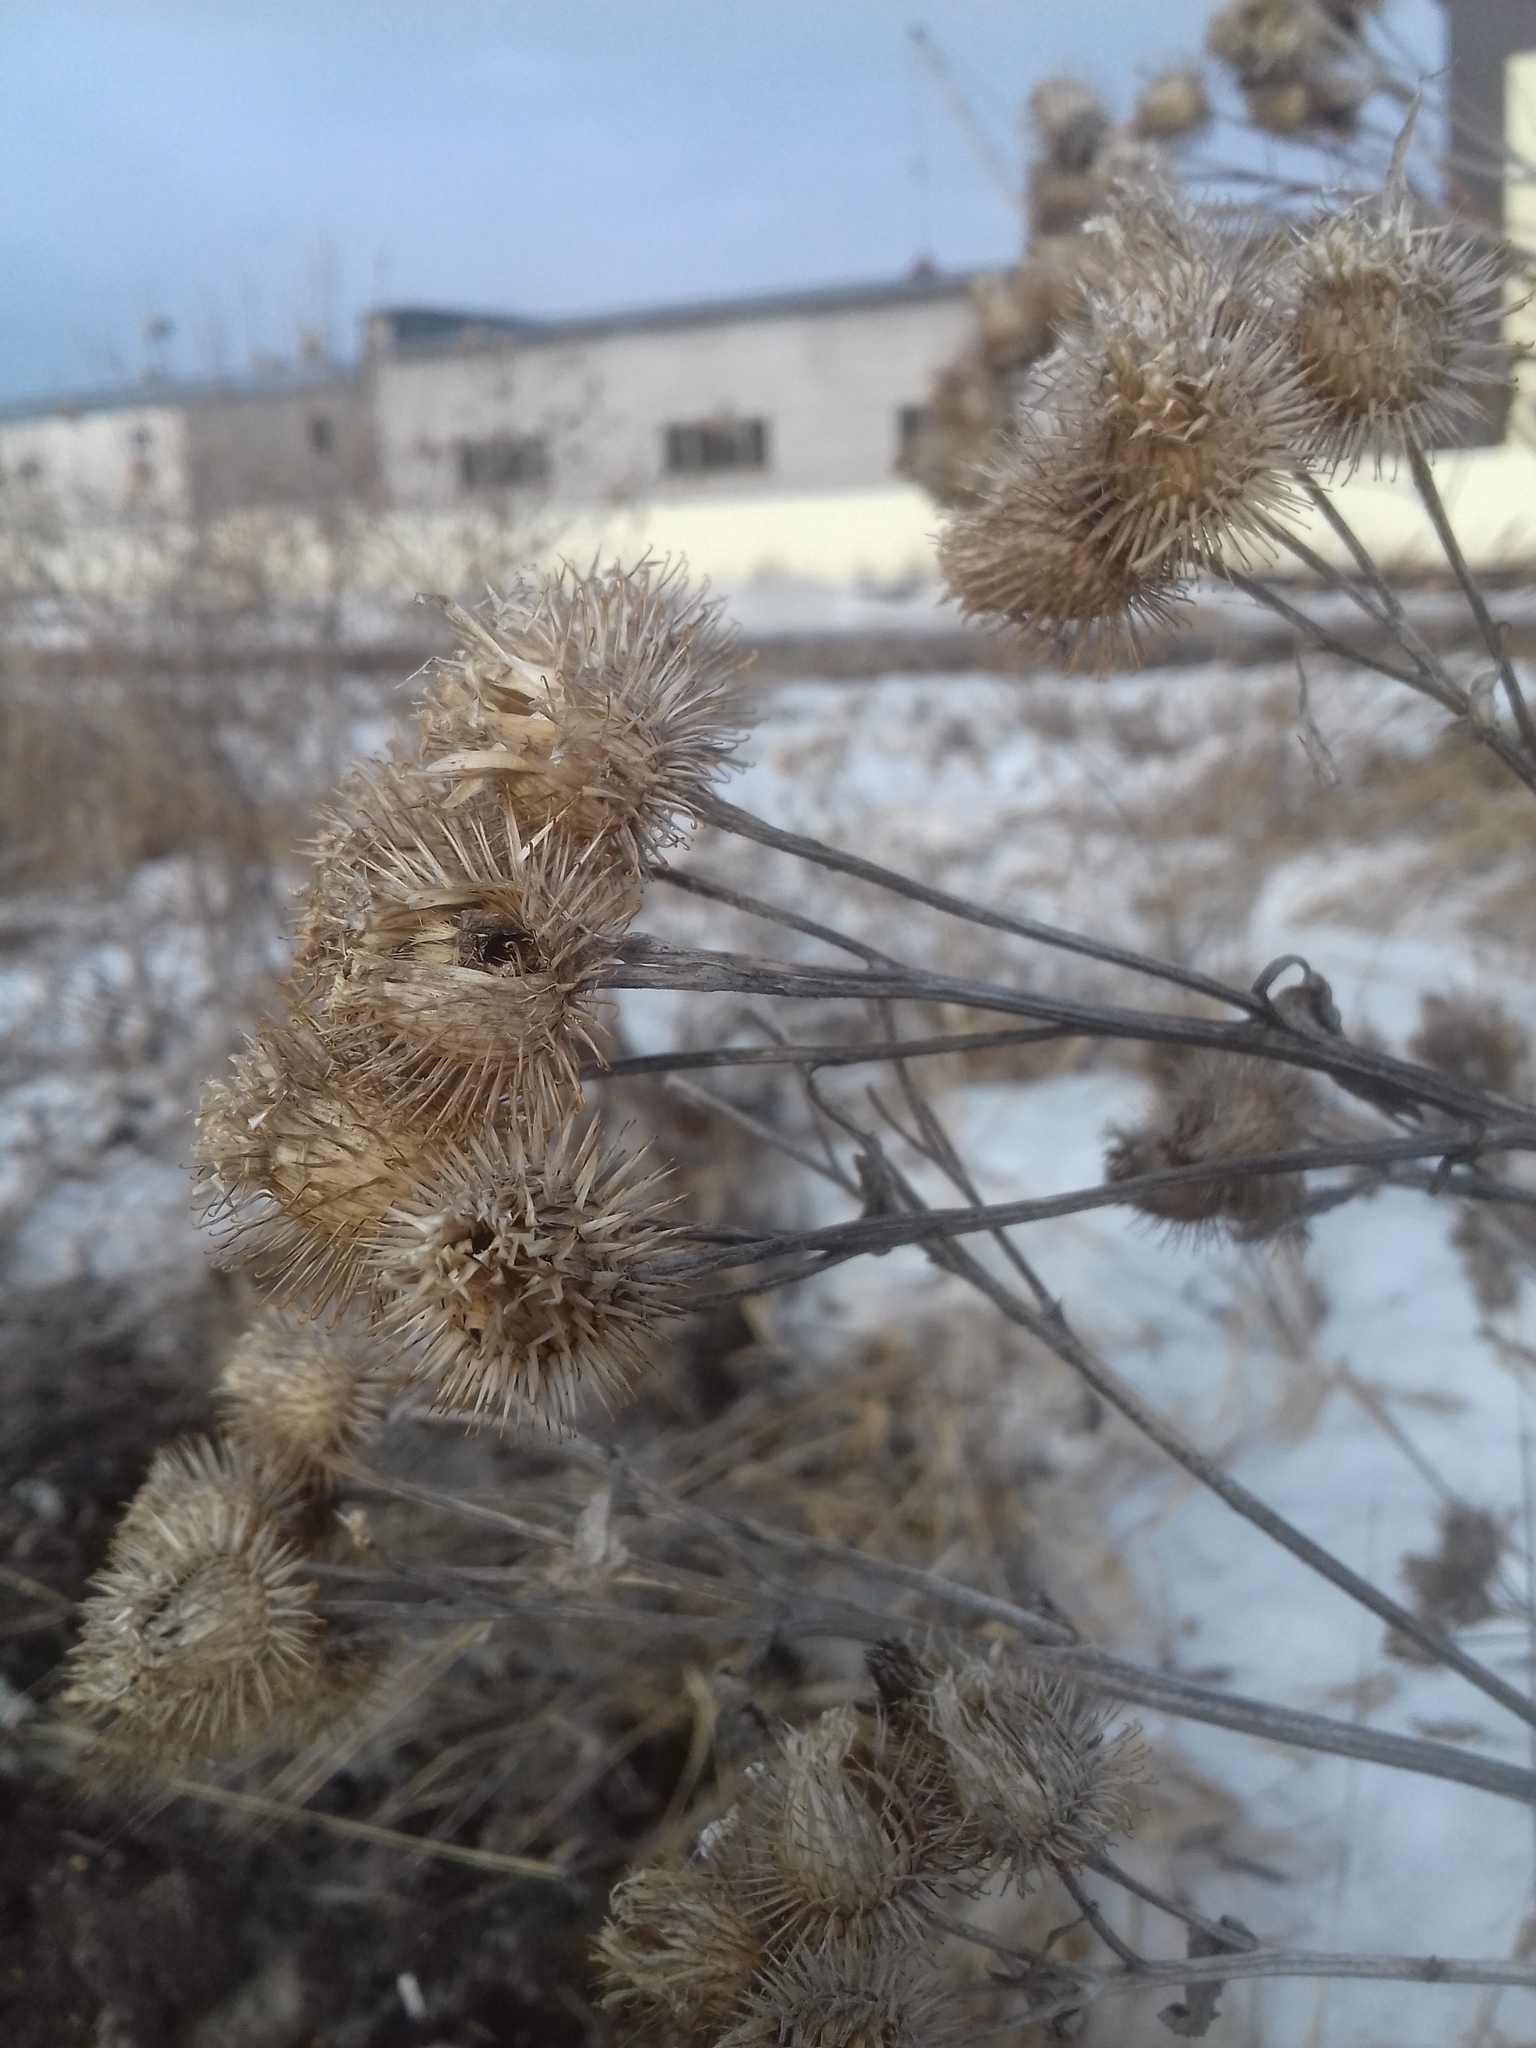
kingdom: Plantae
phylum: Tracheophyta
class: Magnoliopsida
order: Asterales
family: Asteraceae
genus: Arctium
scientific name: Arctium tomentosum
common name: Woolly burdock
